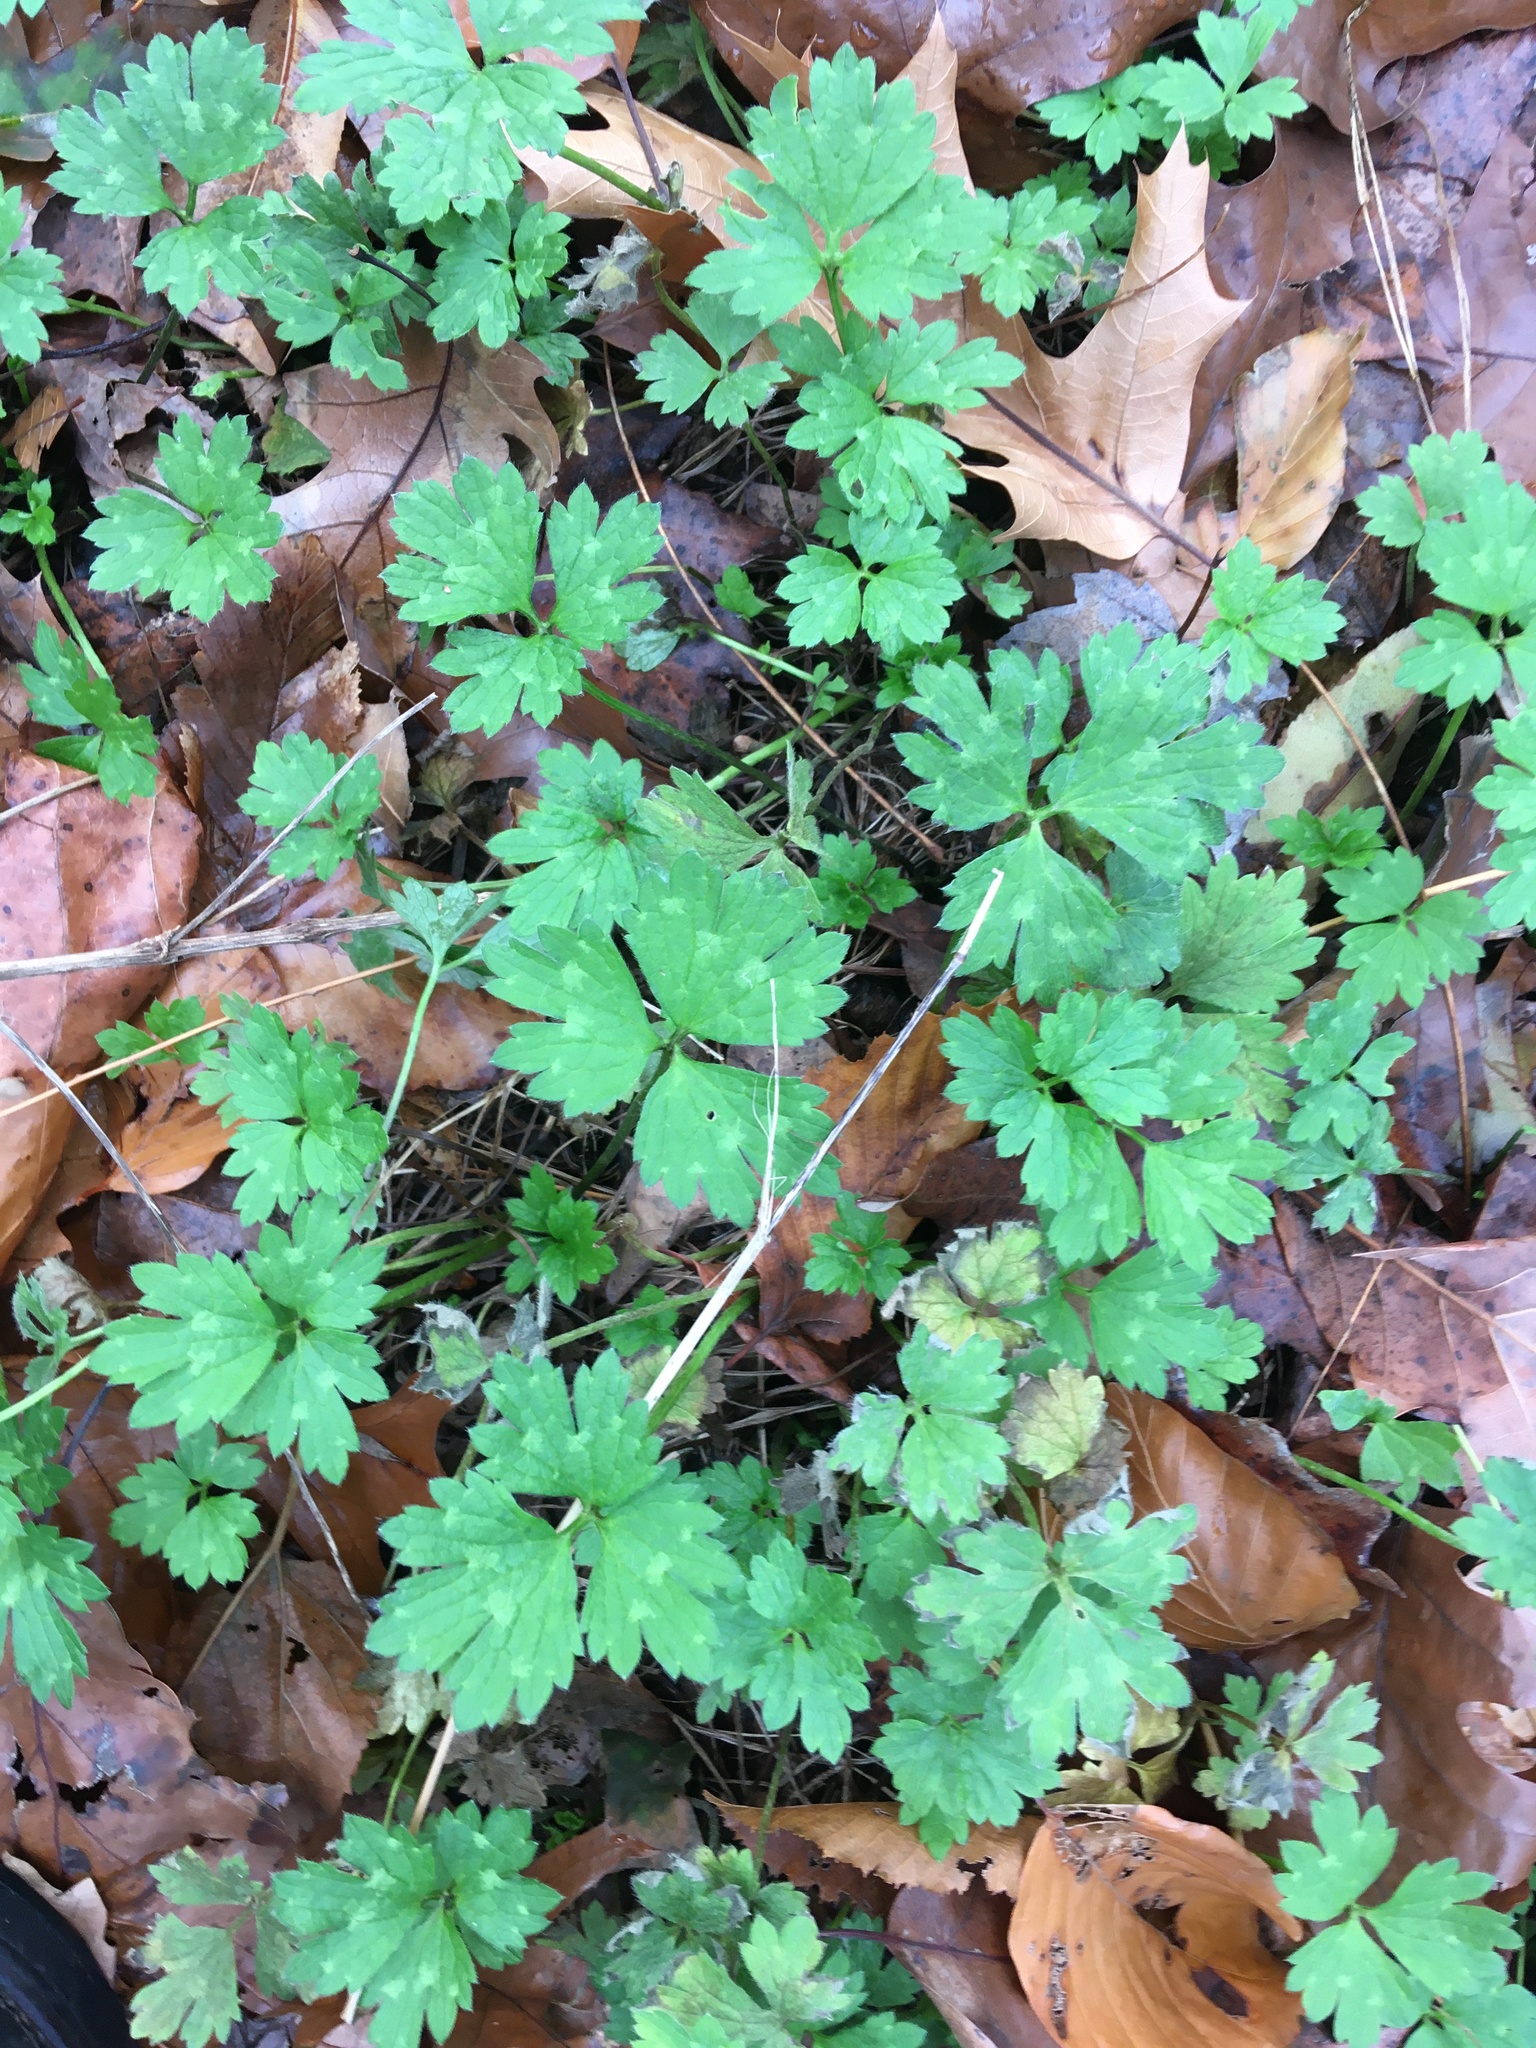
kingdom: Plantae
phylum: Tracheophyta
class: Magnoliopsida
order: Ranunculales
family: Ranunculaceae
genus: Ranunculus
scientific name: Ranunculus repens
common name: Creeping buttercup
